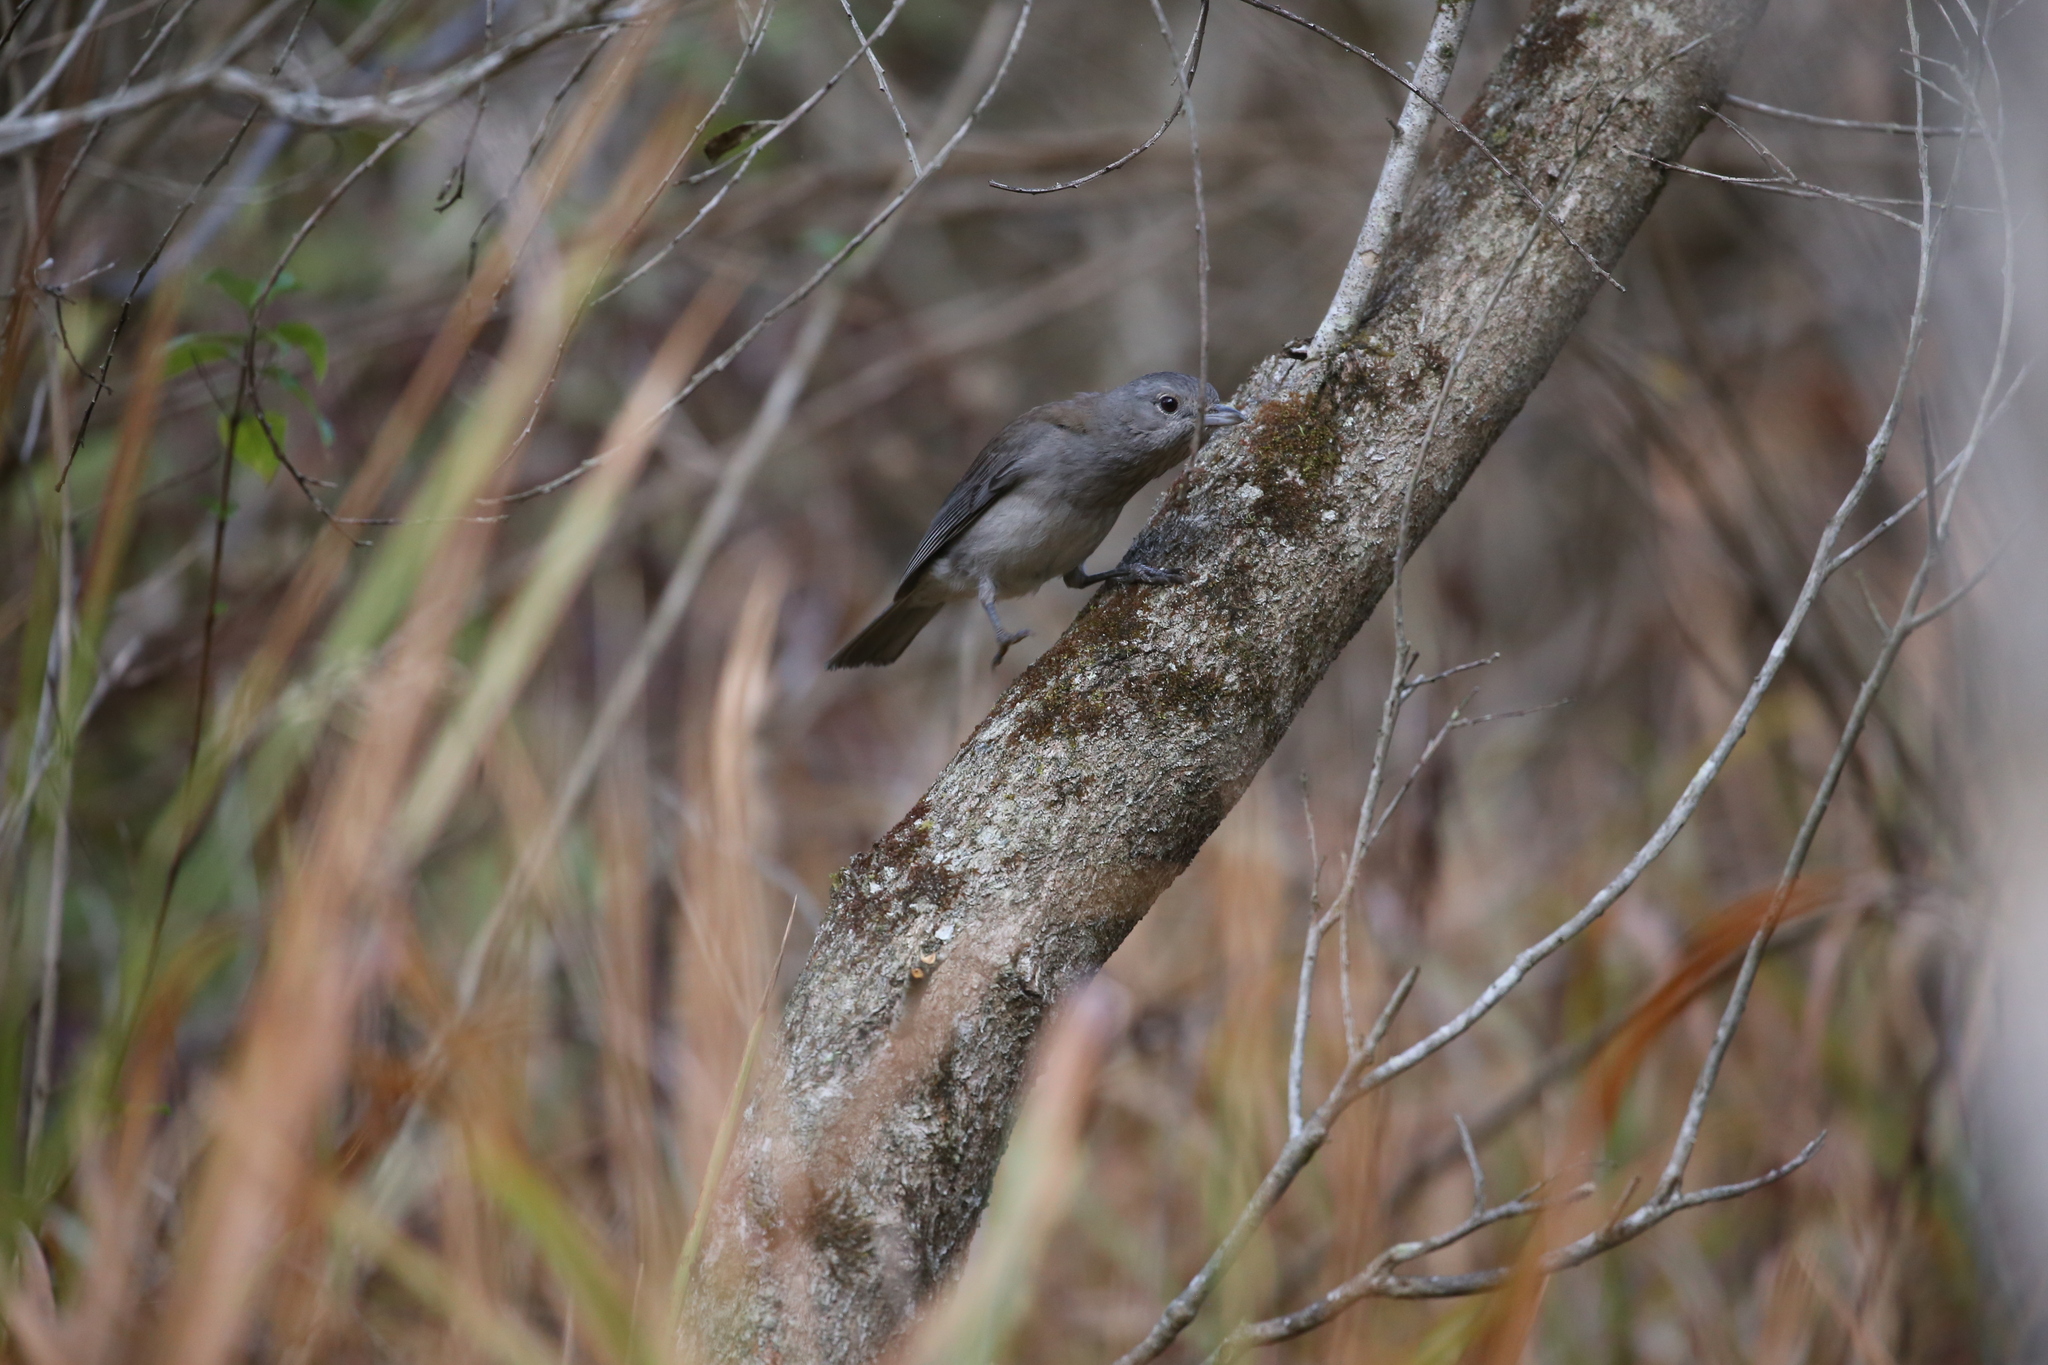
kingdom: Animalia
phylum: Chordata
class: Aves
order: Passeriformes
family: Pachycephalidae
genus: Colluricincla
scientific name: Colluricincla harmonica
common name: Grey shrikethrush
